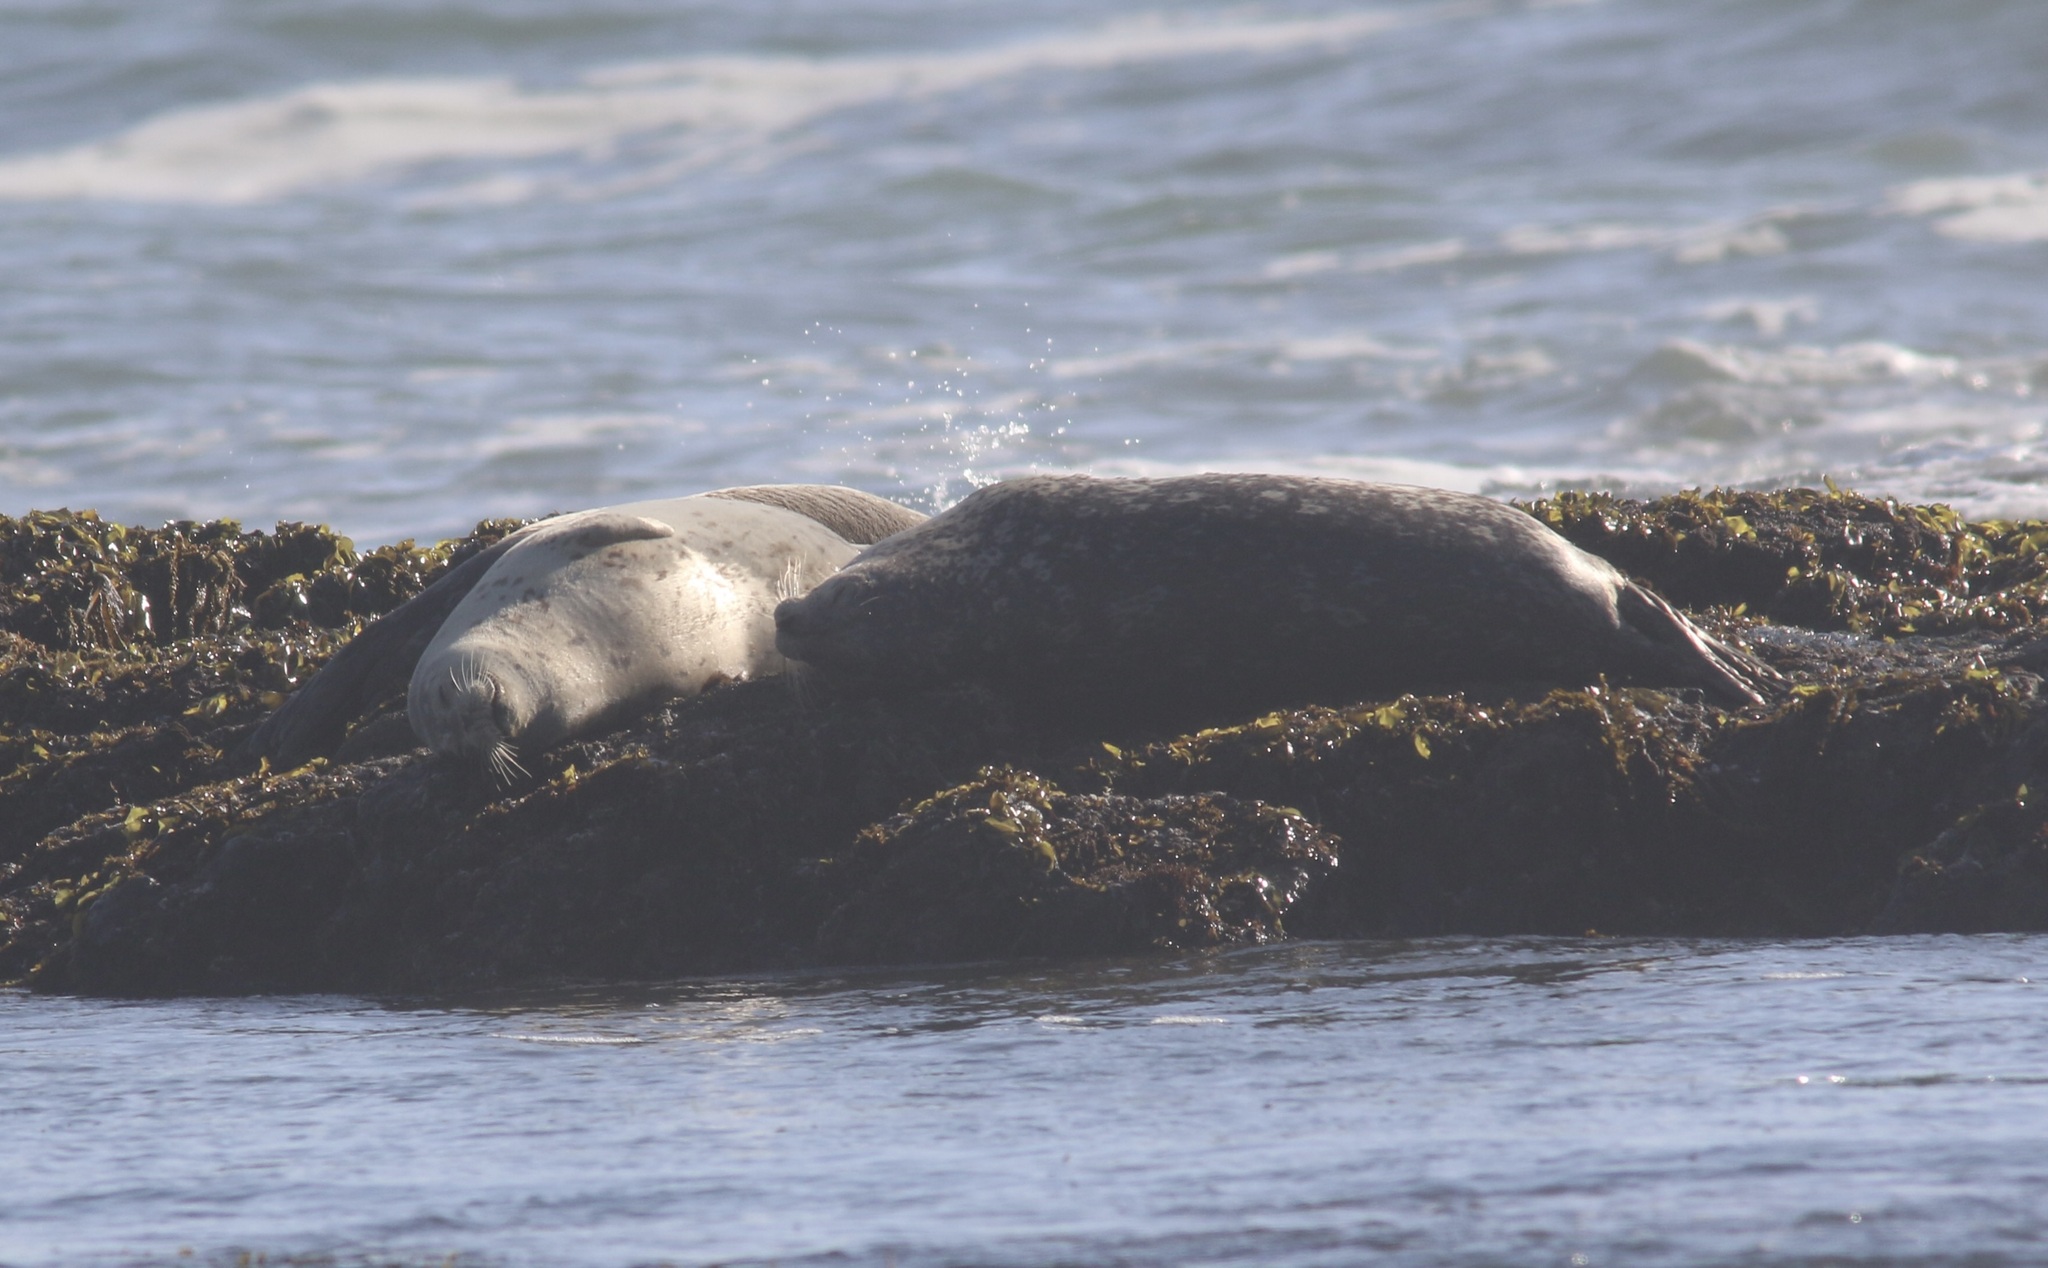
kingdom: Animalia
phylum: Chordata
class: Mammalia
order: Carnivora
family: Phocidae
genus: Phoca
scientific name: Phoca vitulina
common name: Harbor seal
